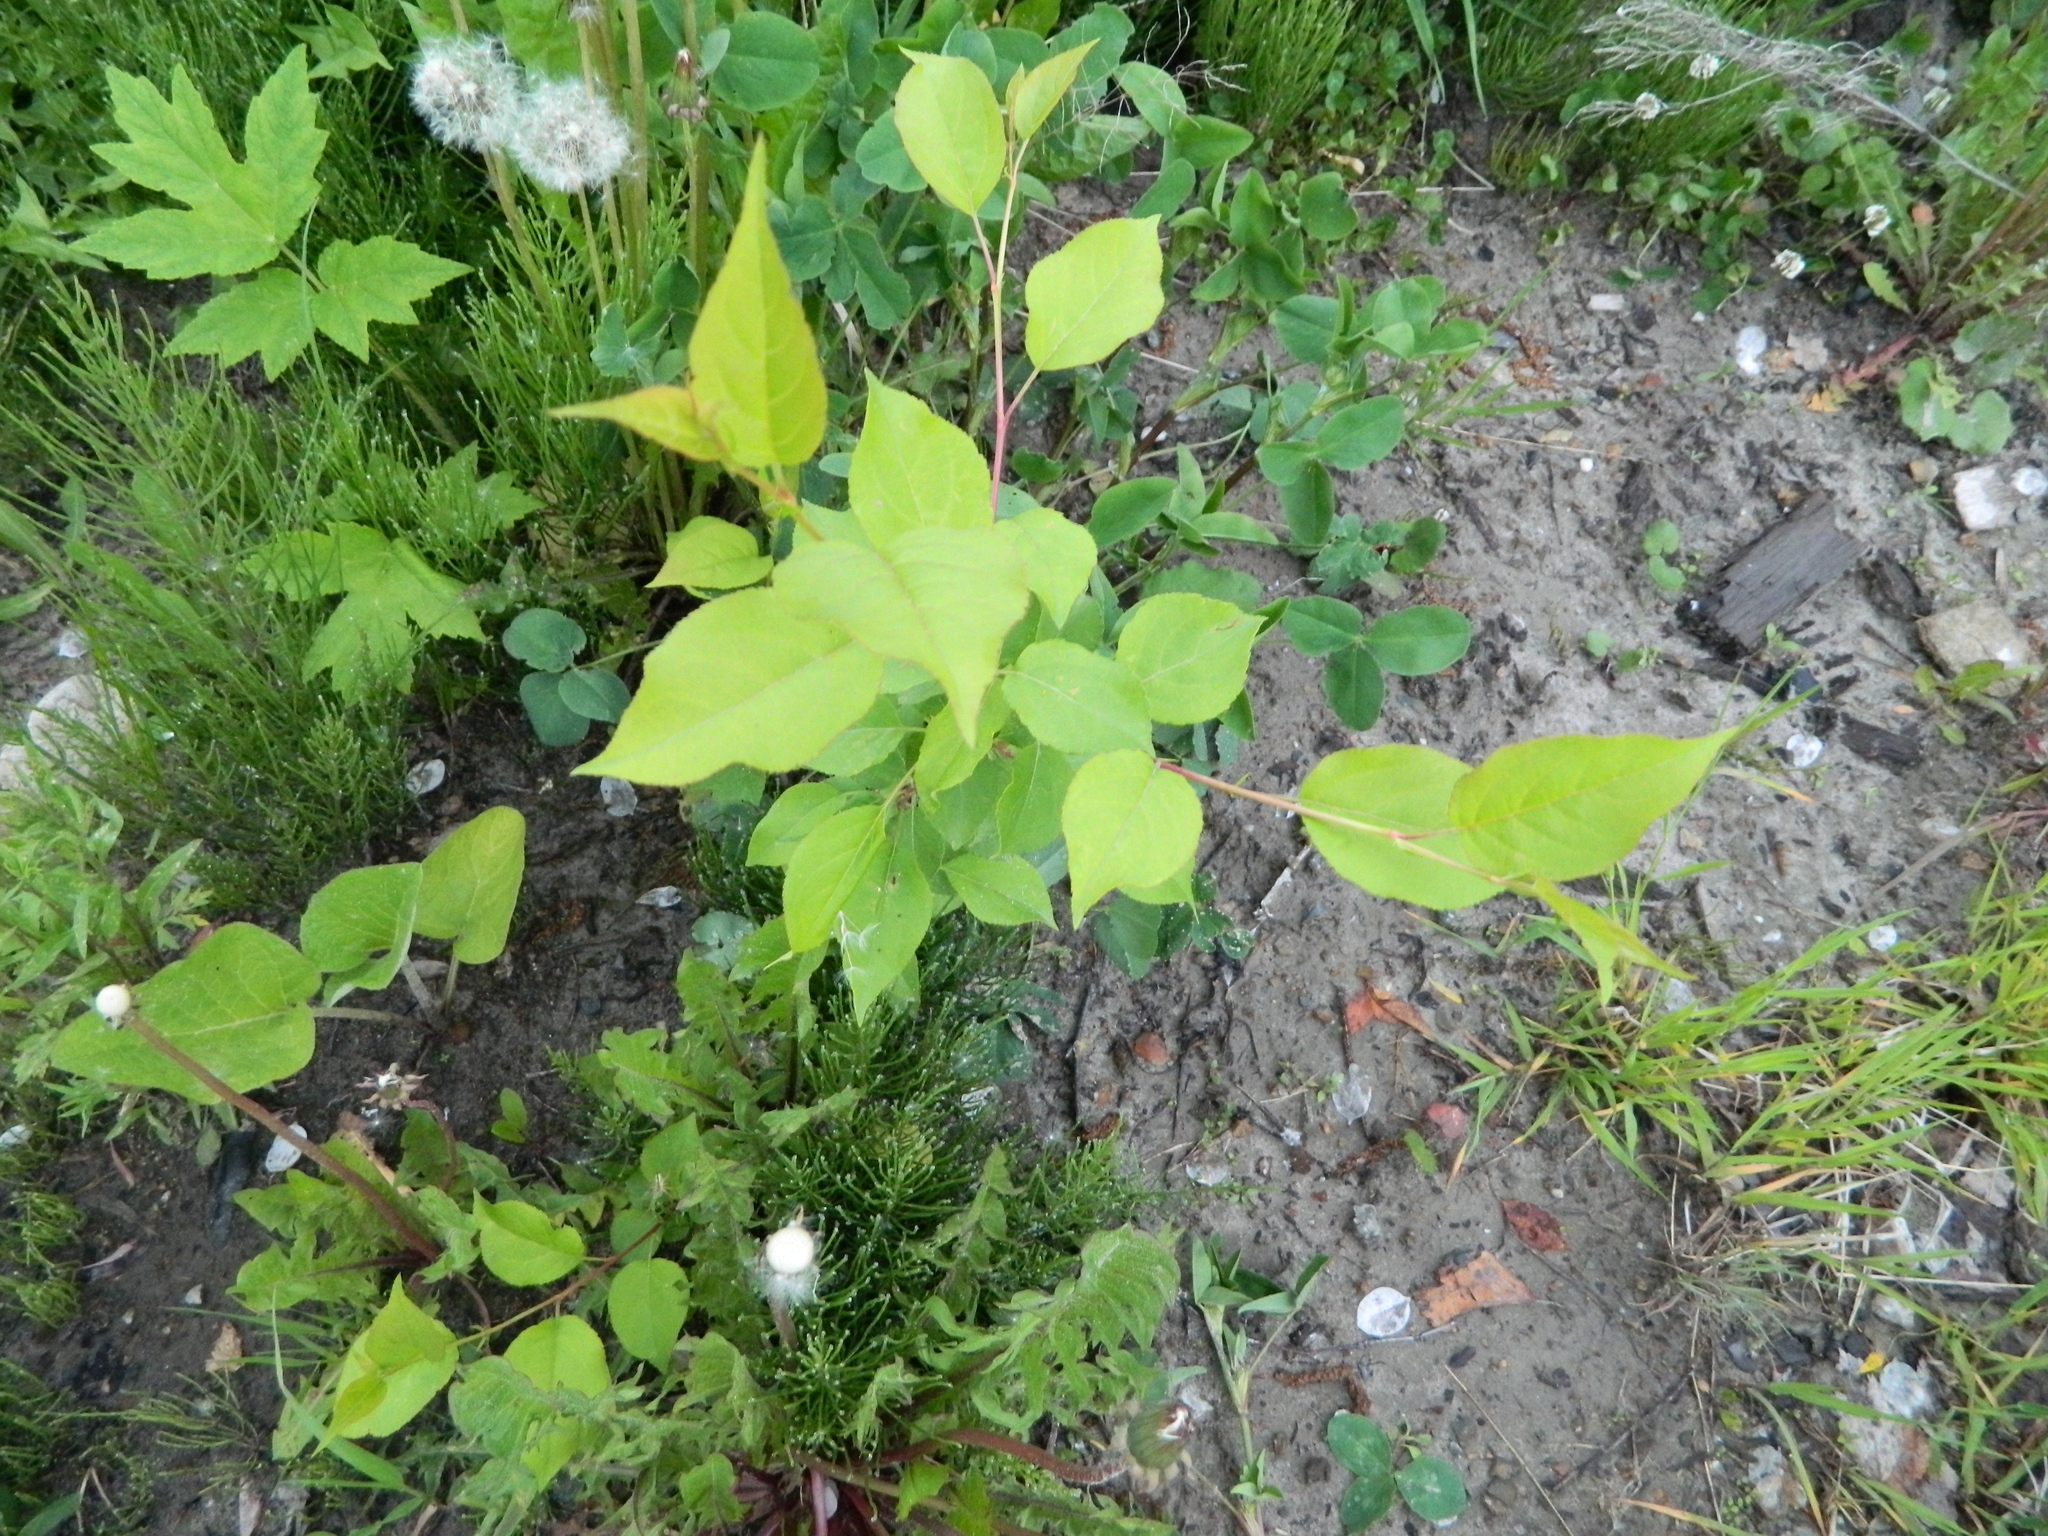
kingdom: Plantae
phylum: Tracheophyta
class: Magnoliopsida
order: Rosales
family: Rosaceae
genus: Malus
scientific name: Malus baccata
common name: Siberian crab
